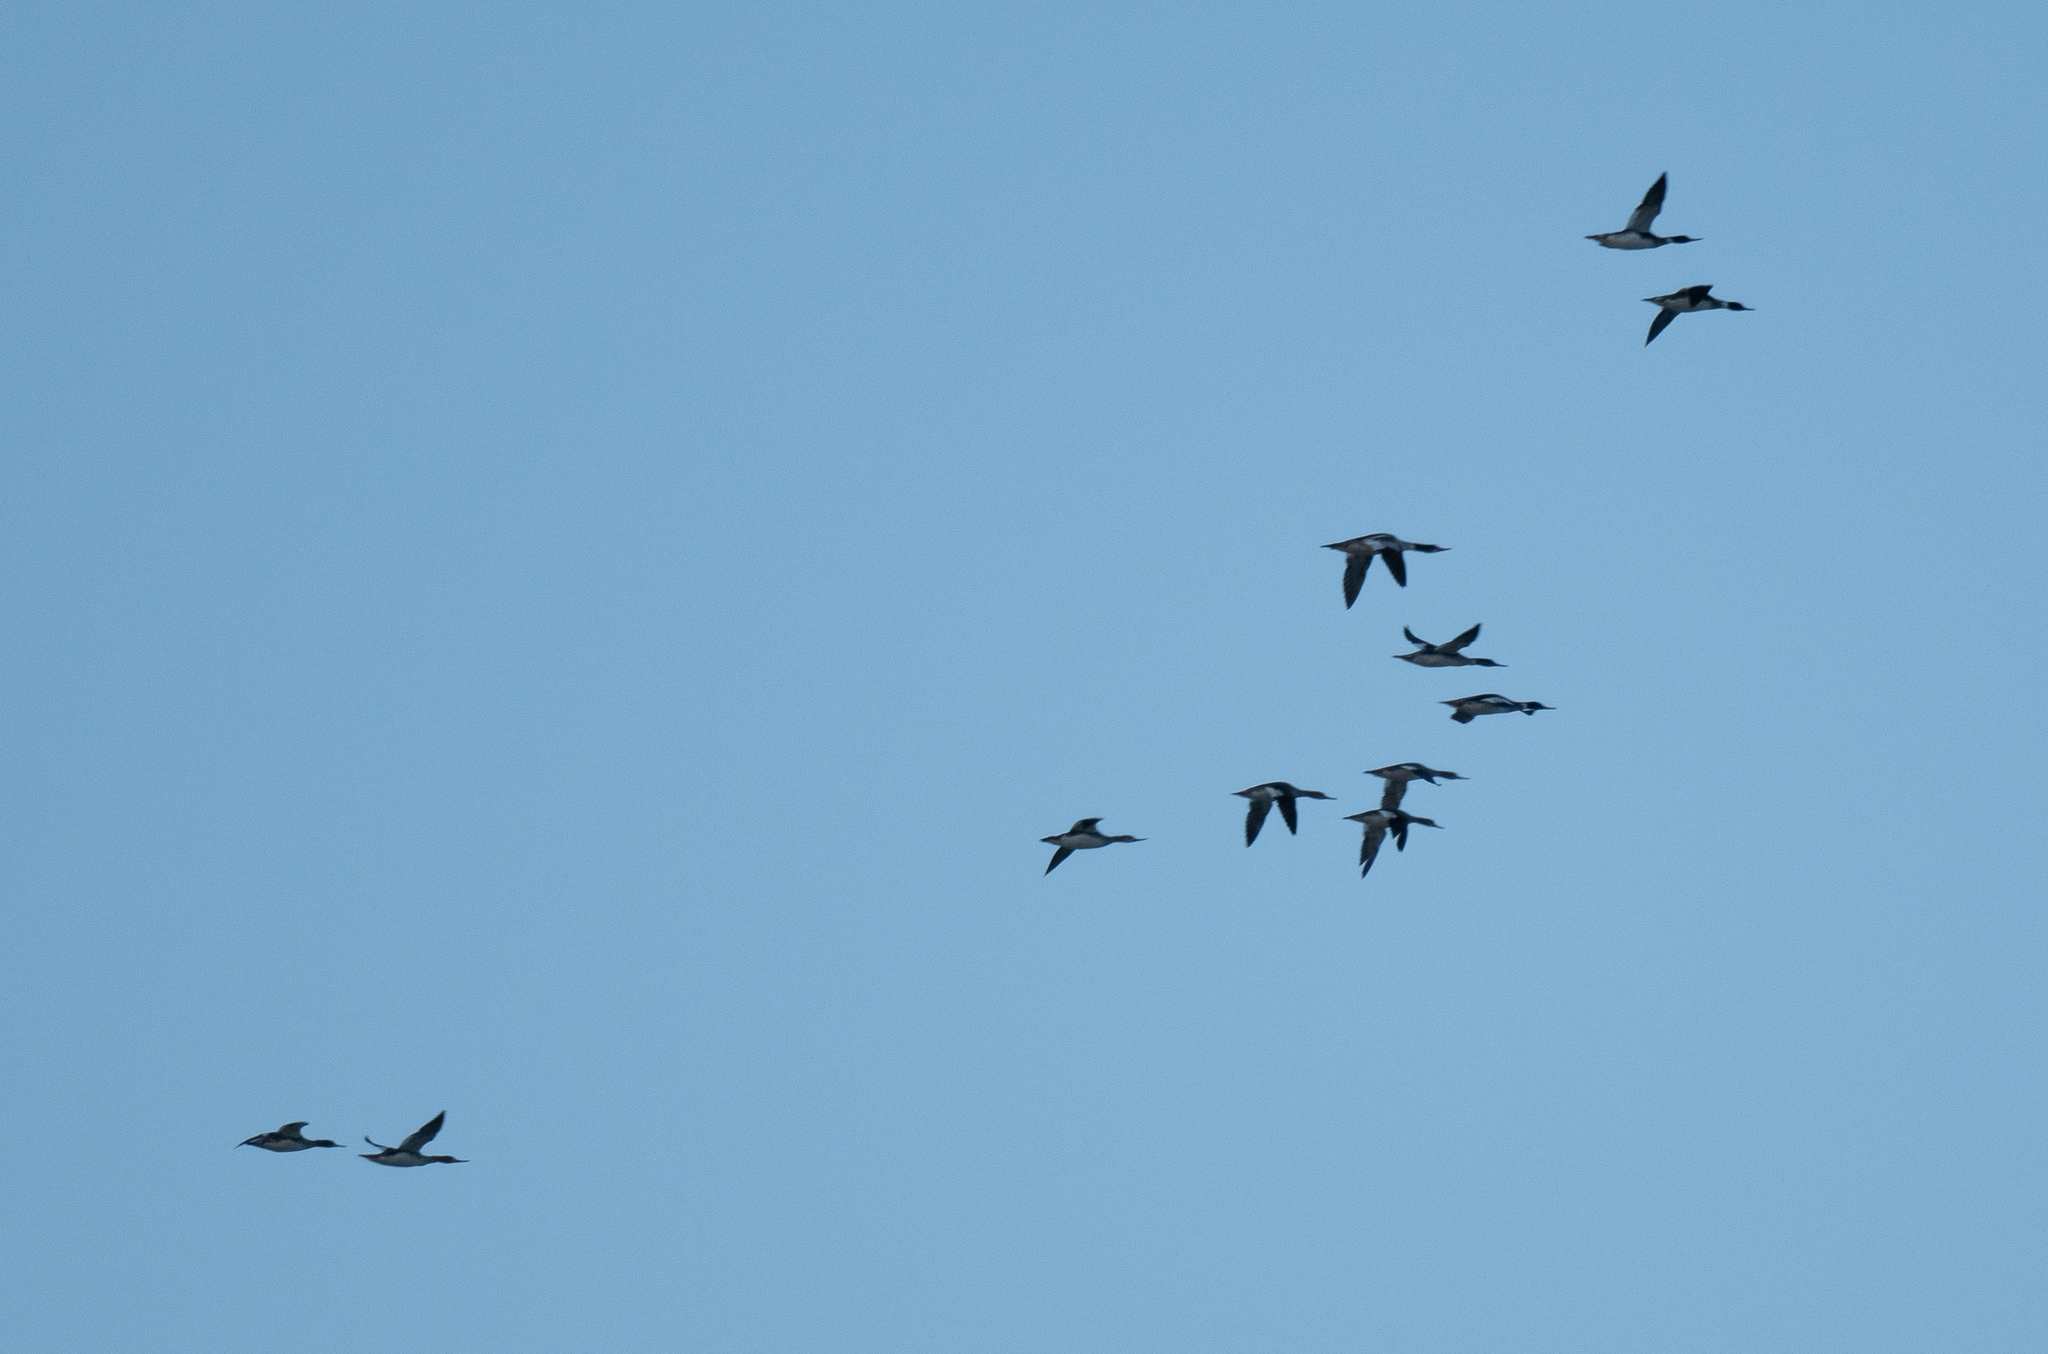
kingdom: Animalia
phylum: Chordata
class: Aves
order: Anseriformes
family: Anatidae
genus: Mergus
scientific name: Mergus serrator
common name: Red-breasted merganser
